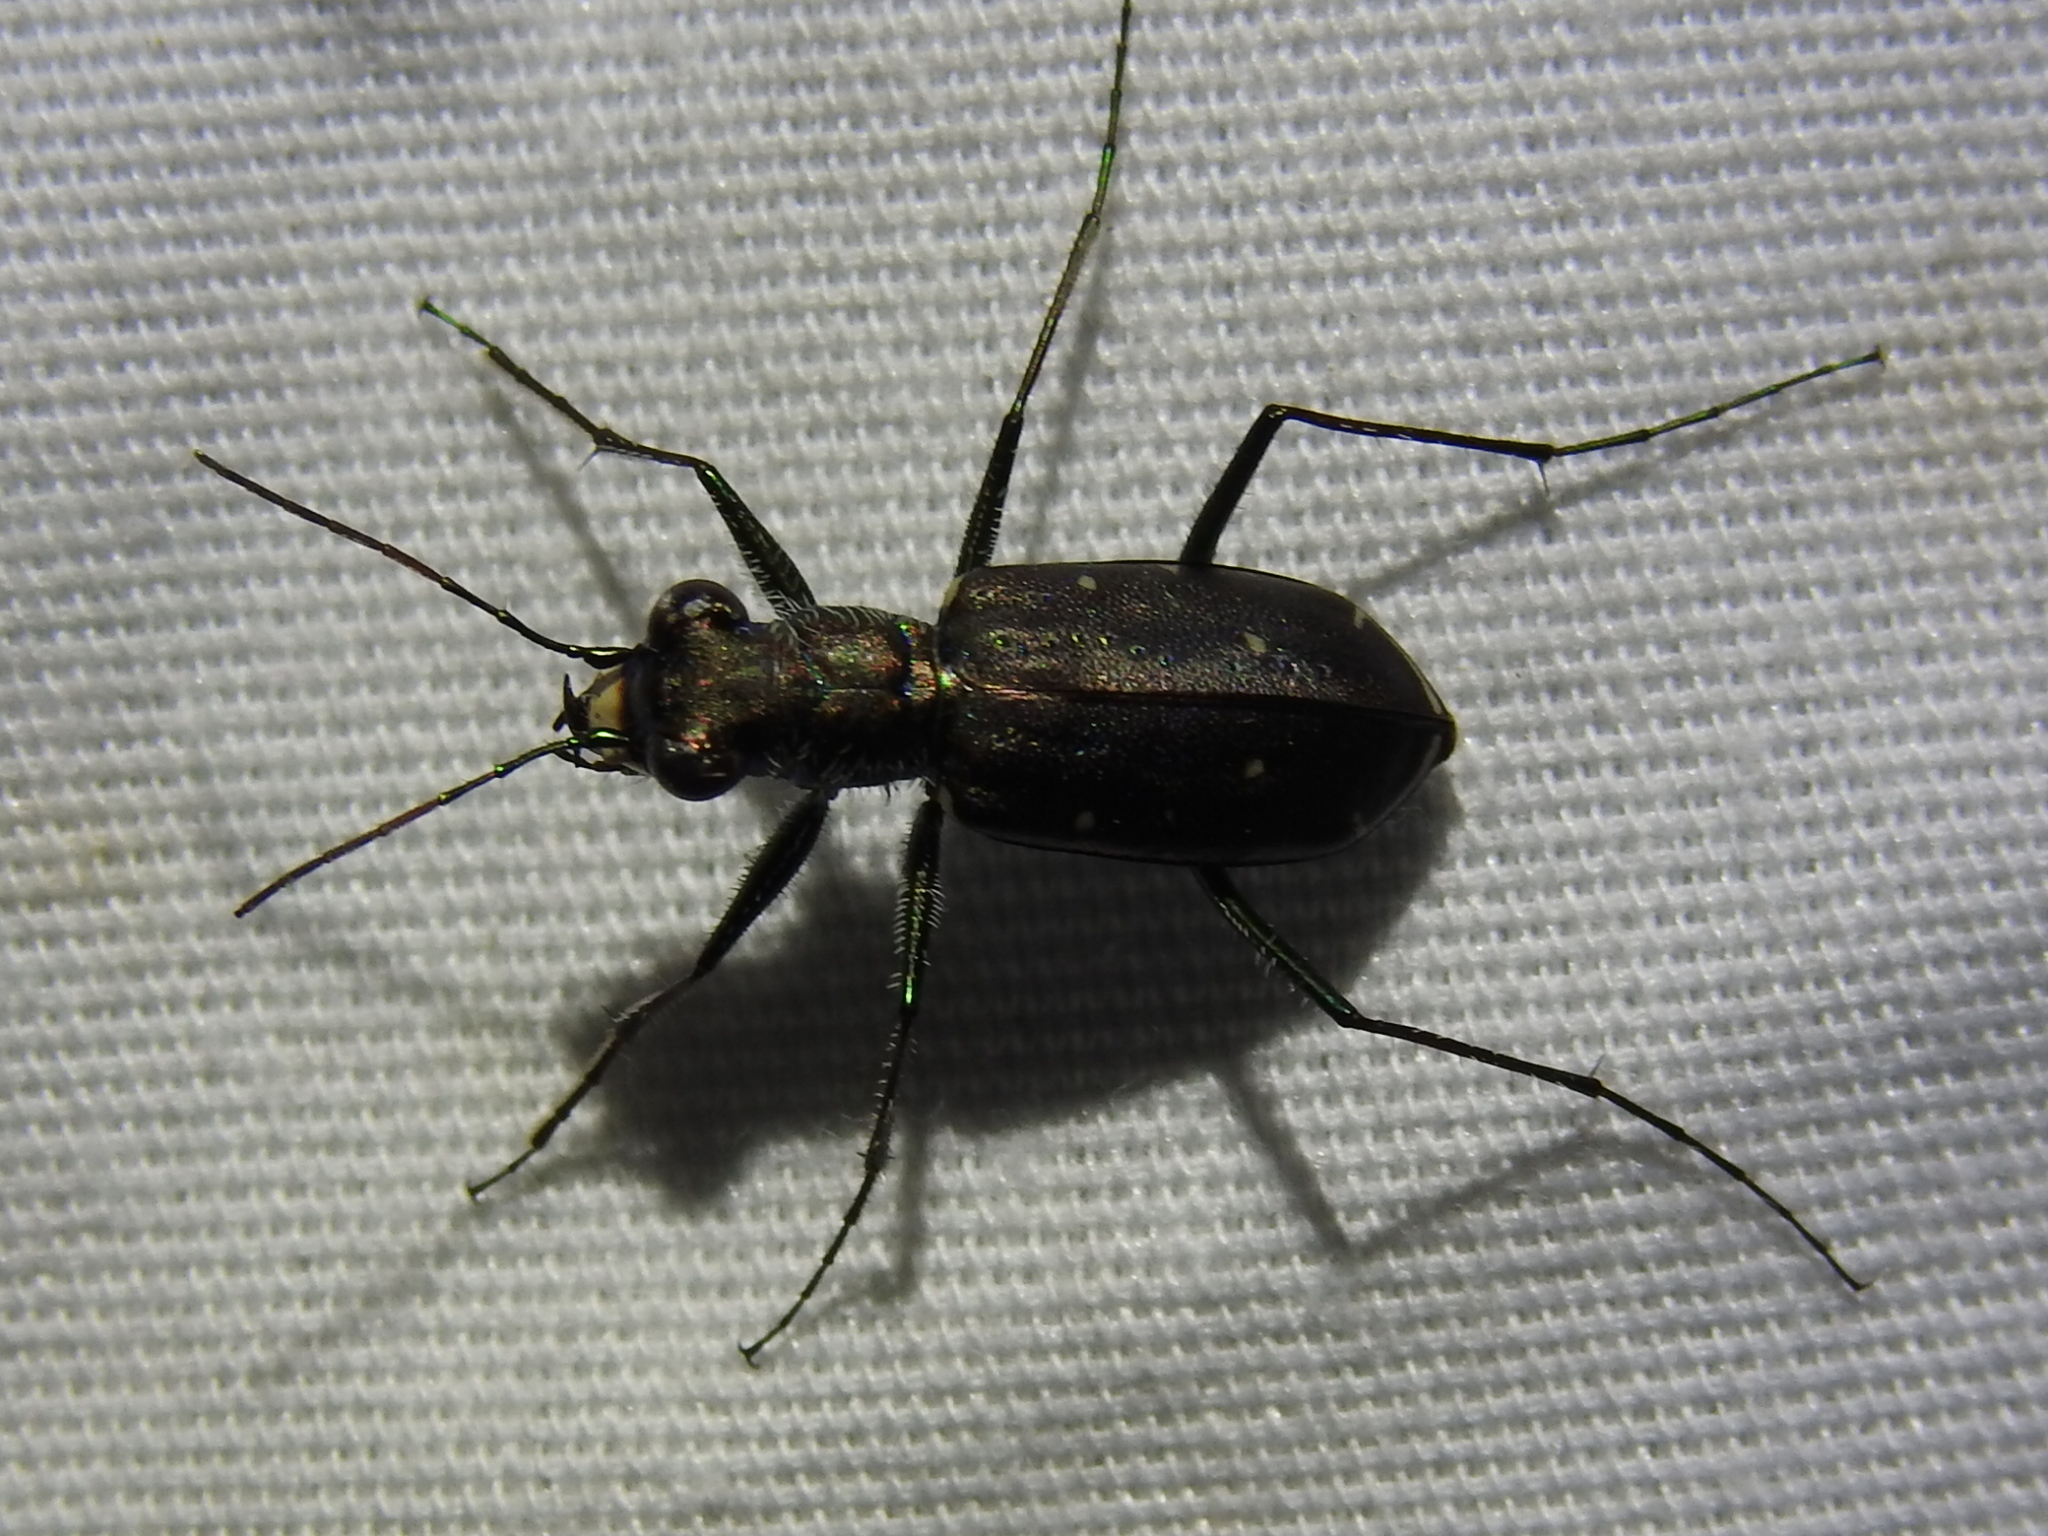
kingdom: Animalia
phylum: Arthropoda
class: Insecta
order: Coleoptera
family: Carabidae
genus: Cicindela
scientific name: Cicindela punctulata
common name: Punctured tiger beetle
